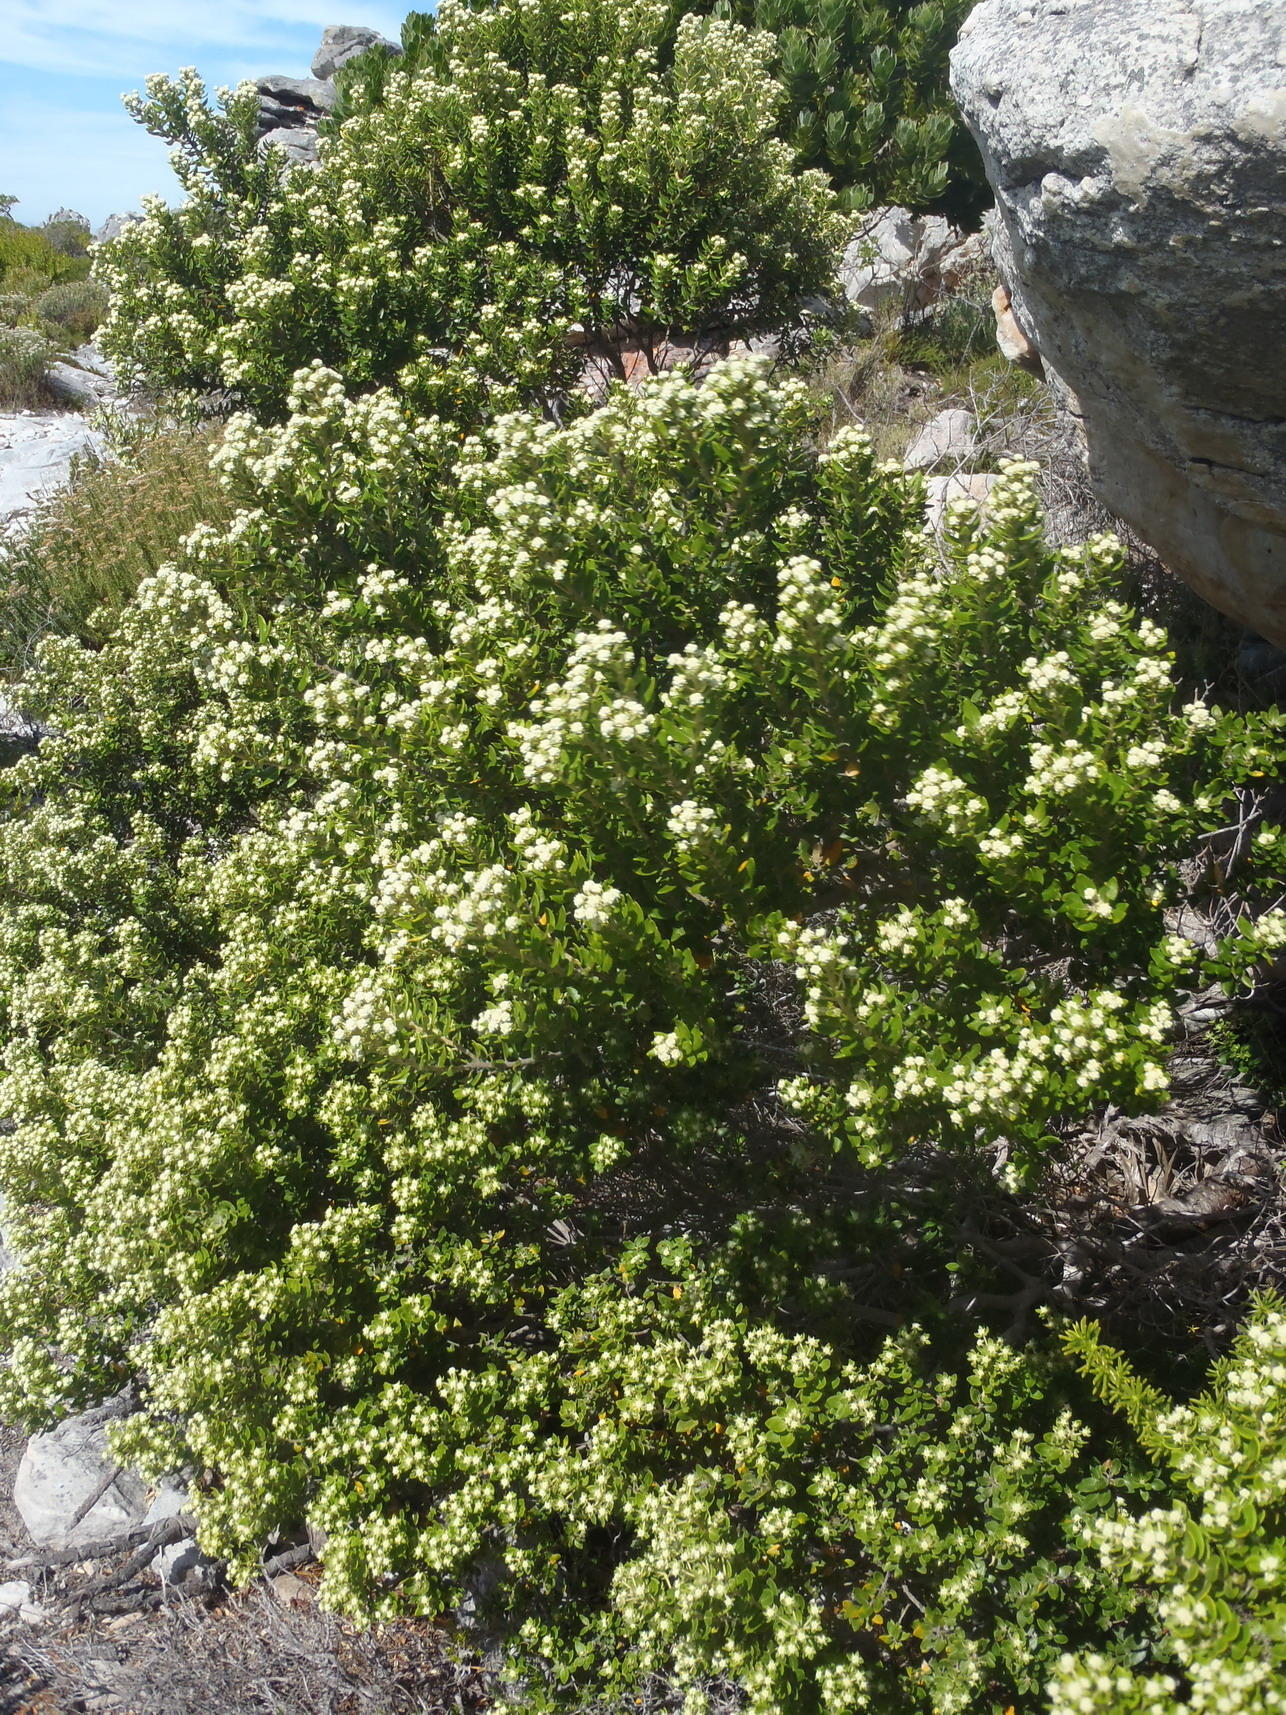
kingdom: Plantae
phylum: Tracheophyta
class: Magnoliopsida
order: Rosales
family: Rhamnaceae
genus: Phylica
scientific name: Phylica buxifolia
